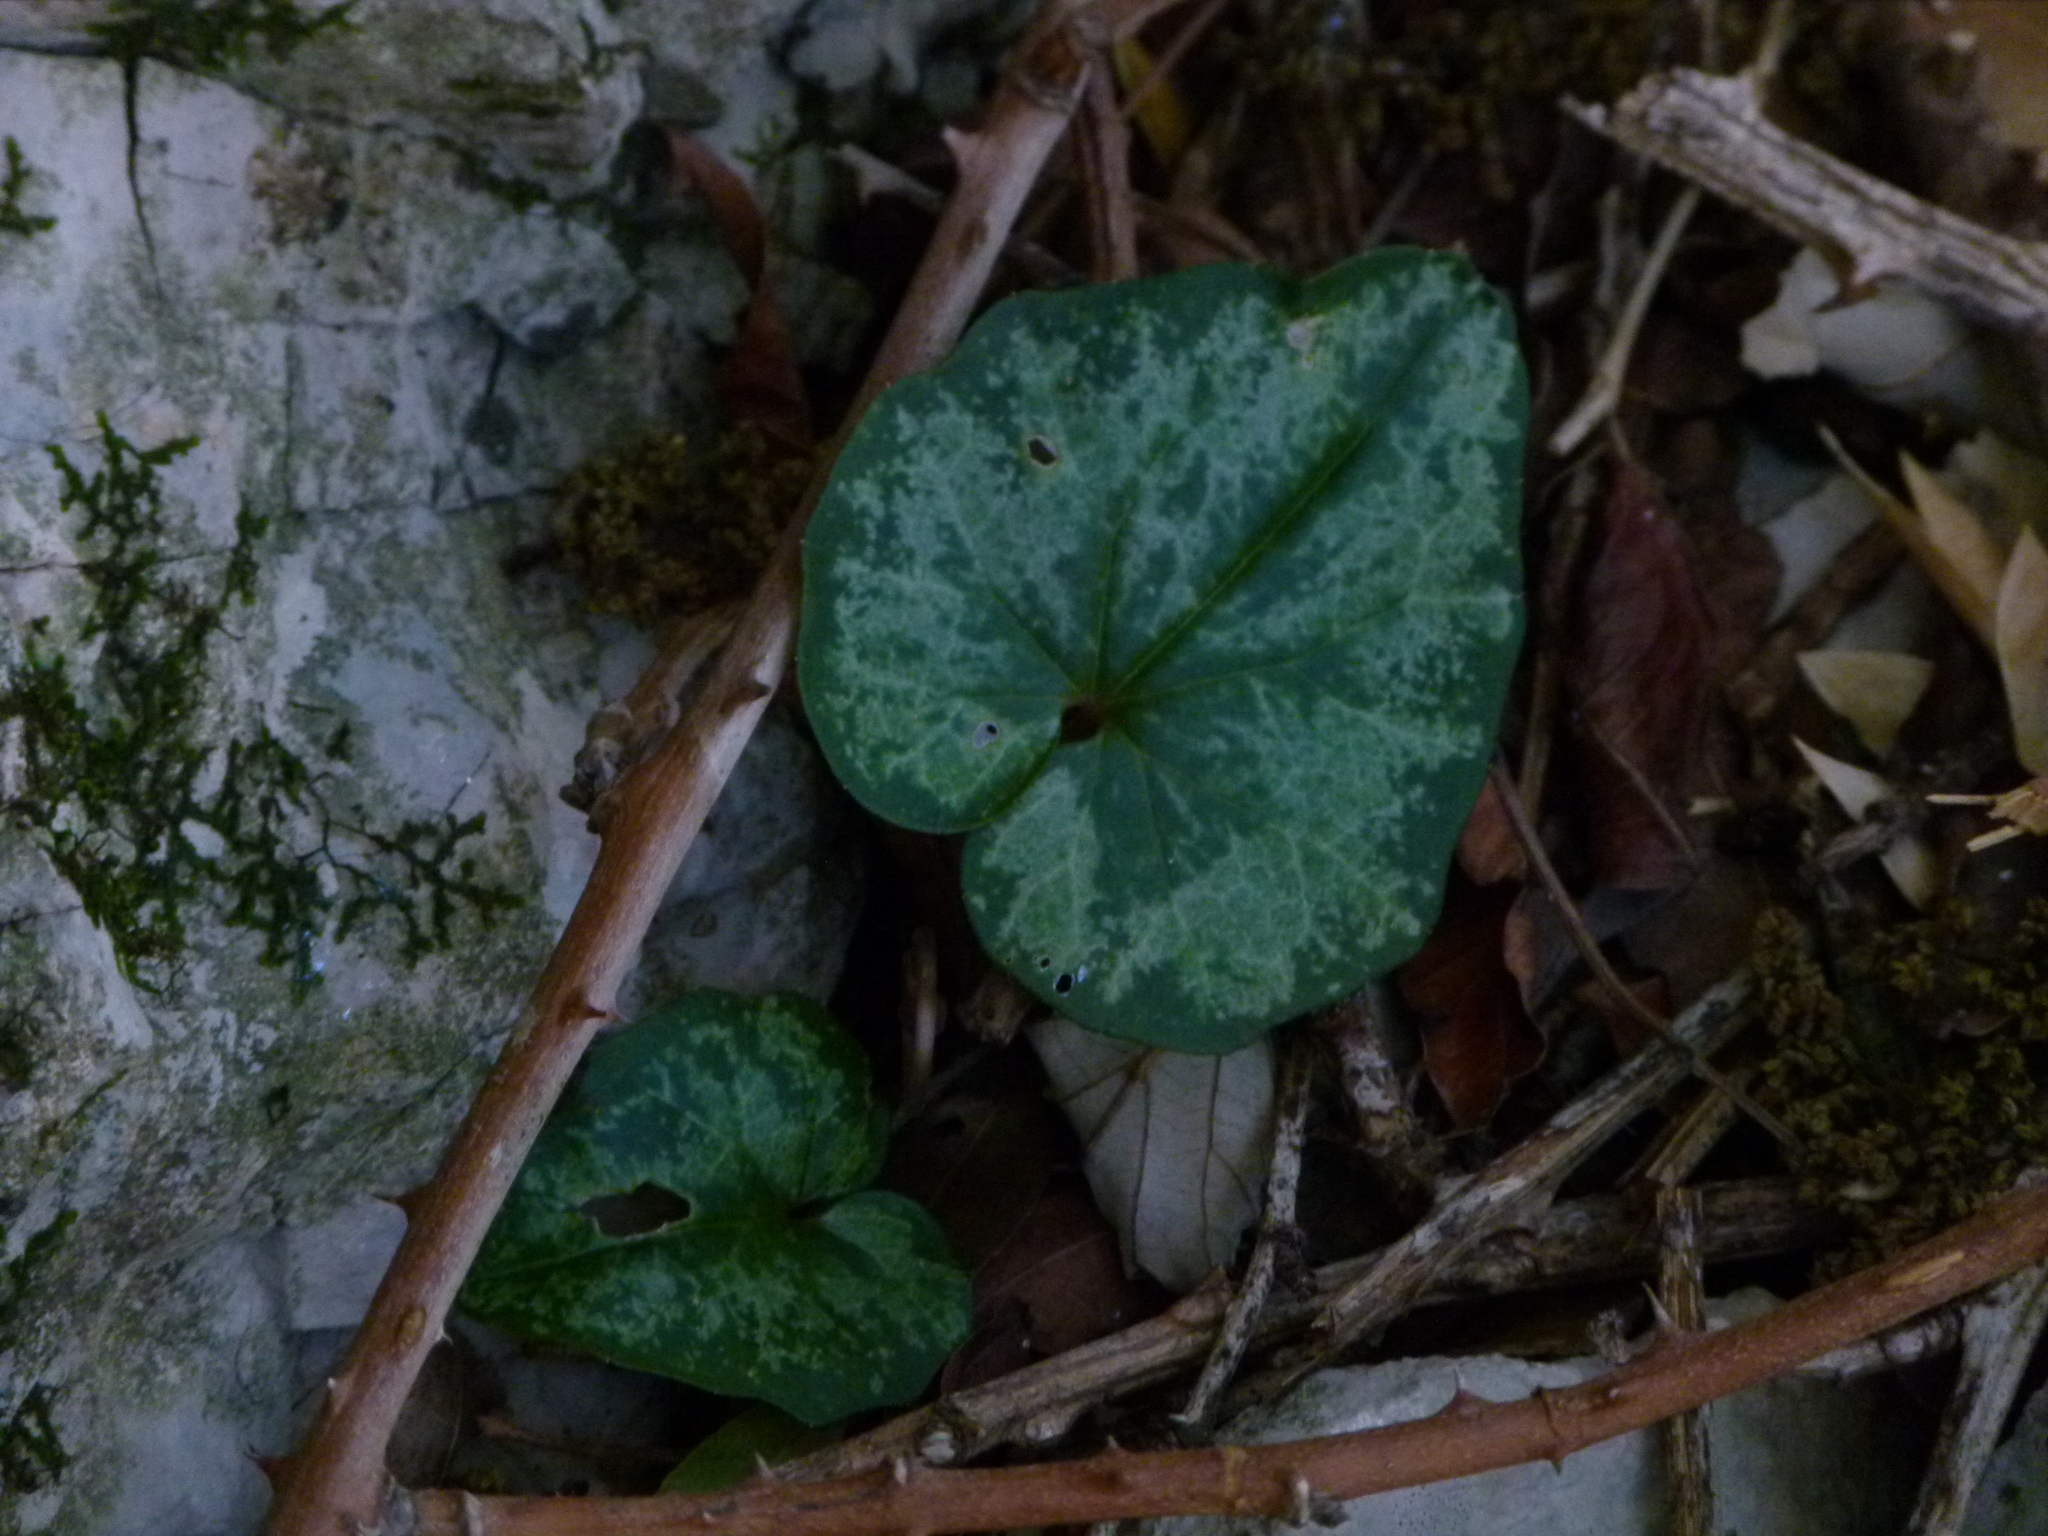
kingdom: Plantae
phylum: Tracheophyta
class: Magnoliopsida
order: Ericales
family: Primulaceae
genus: Cyclamen
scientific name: Cyclamen balearicum
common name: Majorca cyclamen
